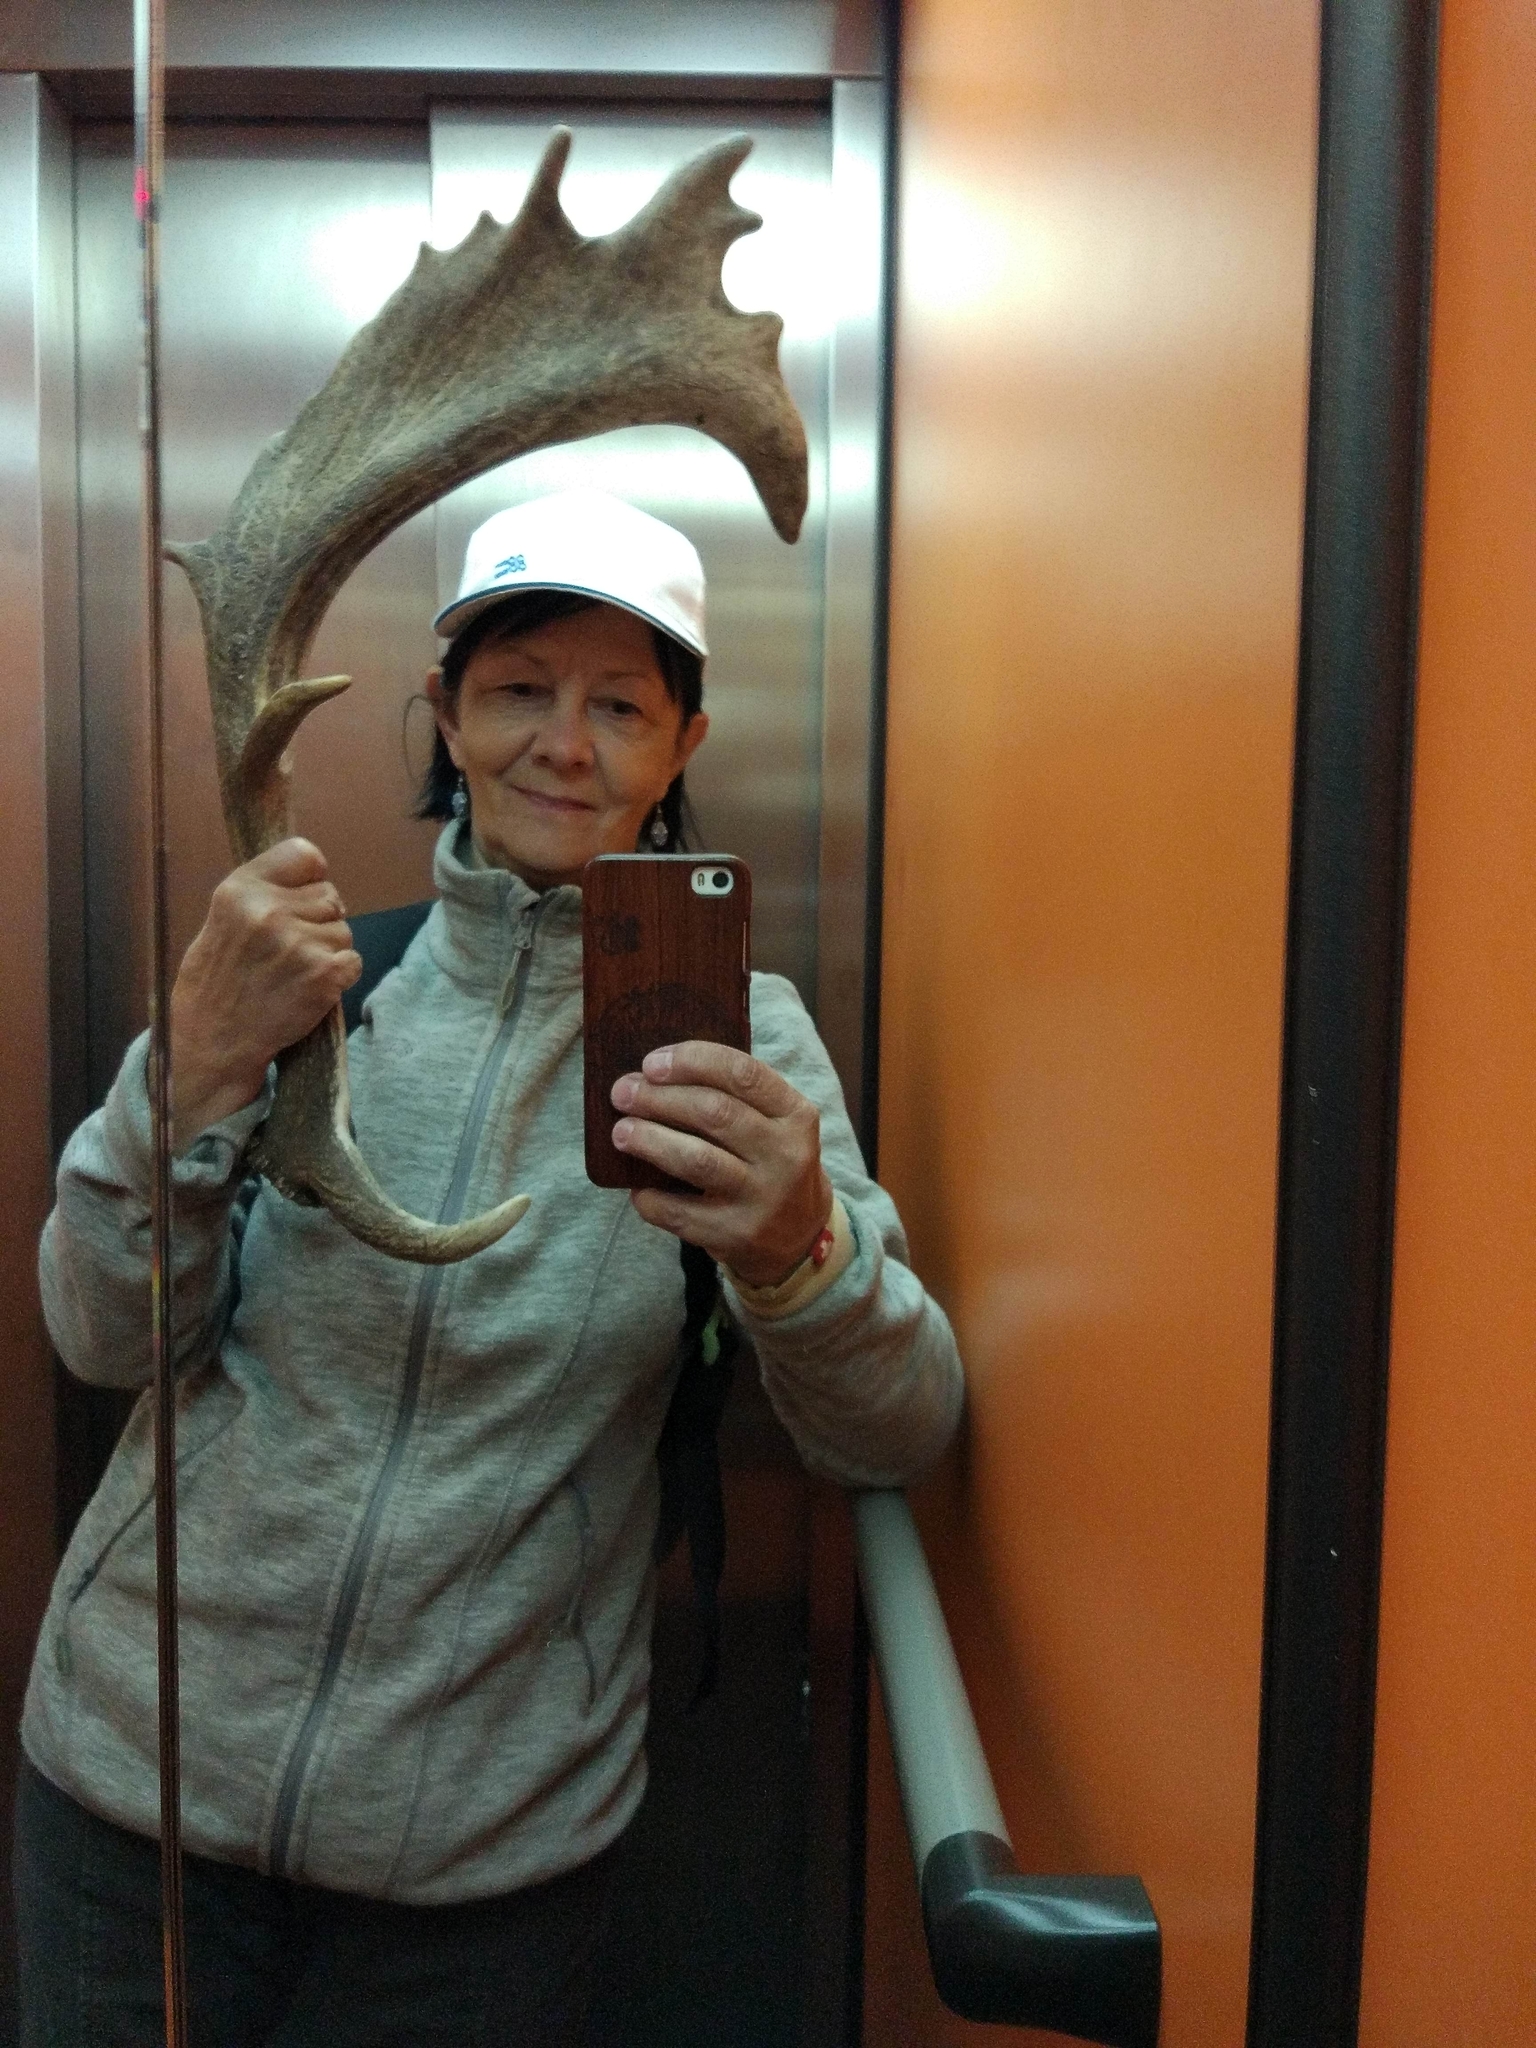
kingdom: Animalia
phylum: Chordata
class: Mammalia
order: Artiodactyla
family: Cervidae
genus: Dama
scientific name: Dama dama
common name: Fallow deer
